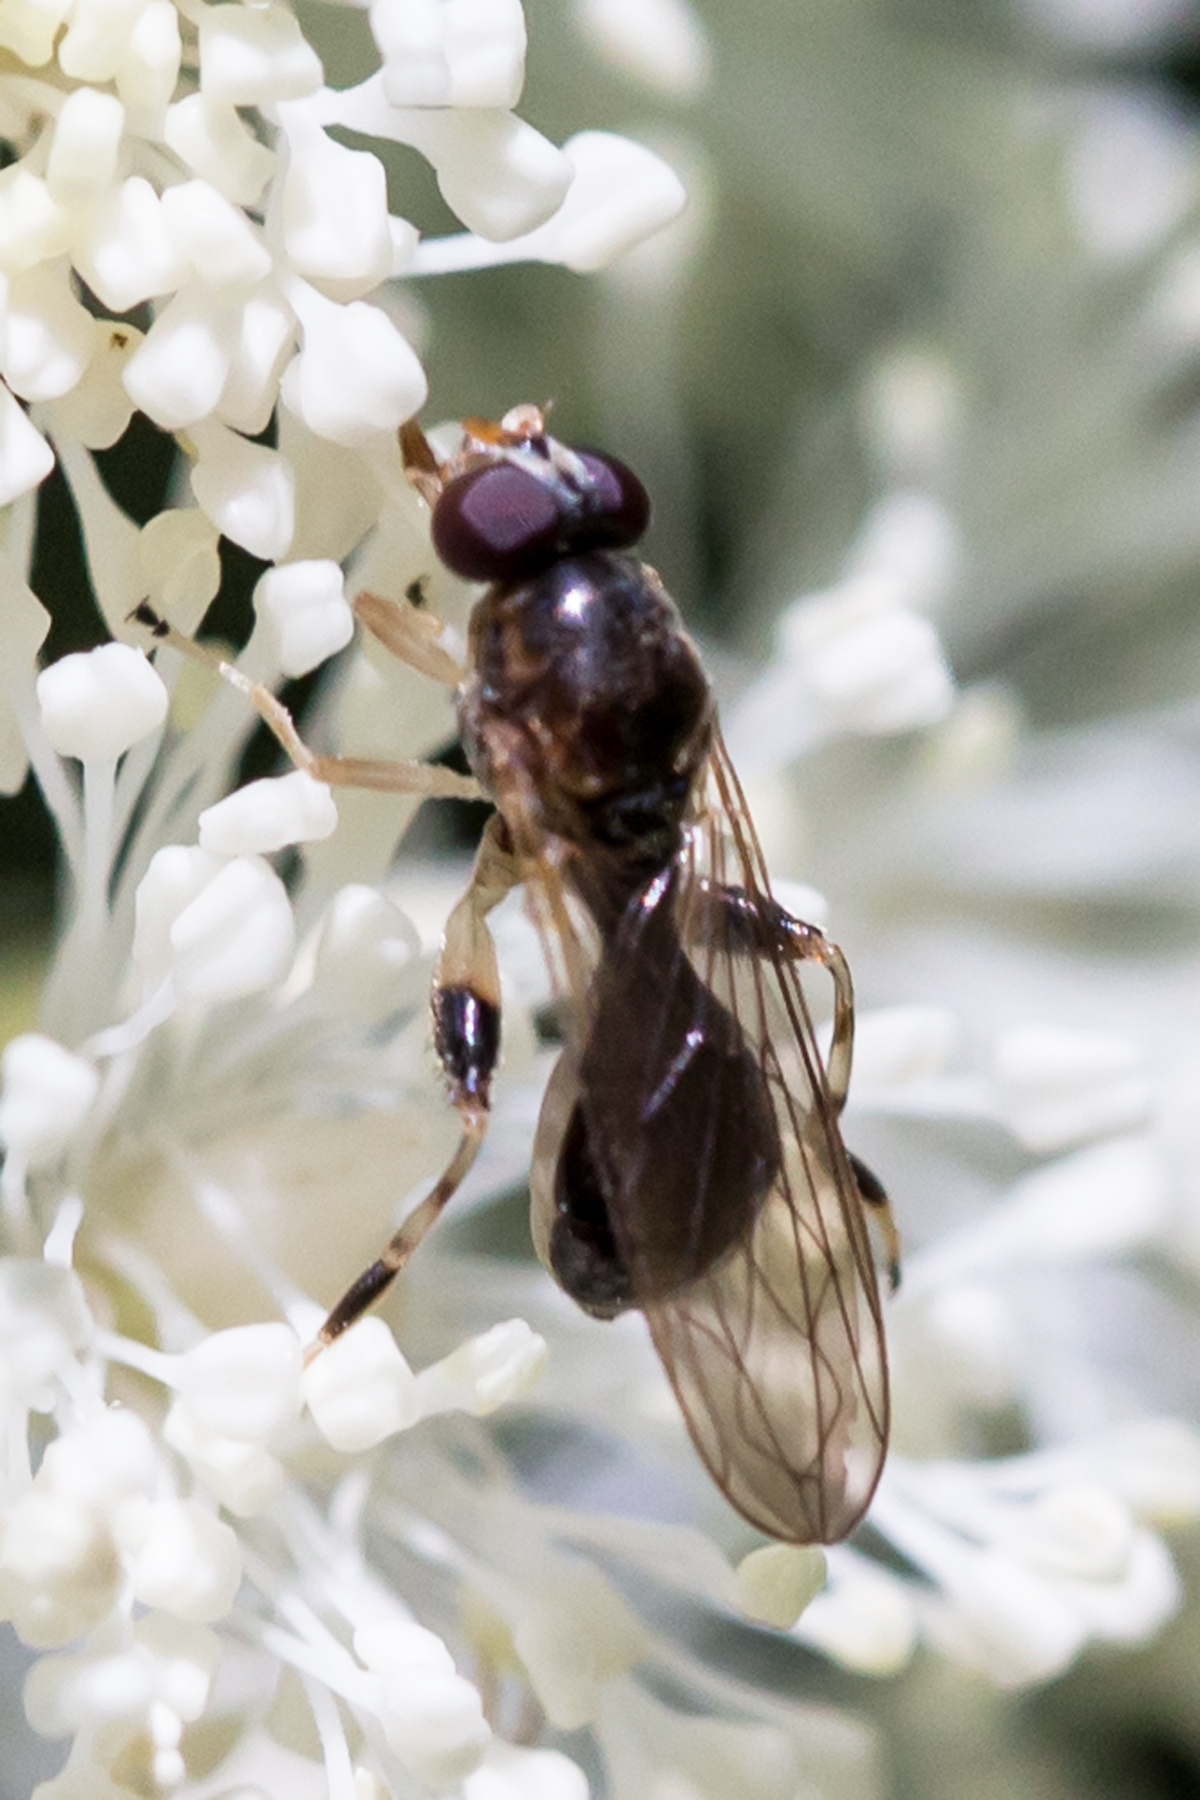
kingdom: Animalia
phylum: Arthropoda
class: Insecta
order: Diptera
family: Syrphidae
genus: Sphegina
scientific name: Sphegina keeniana
